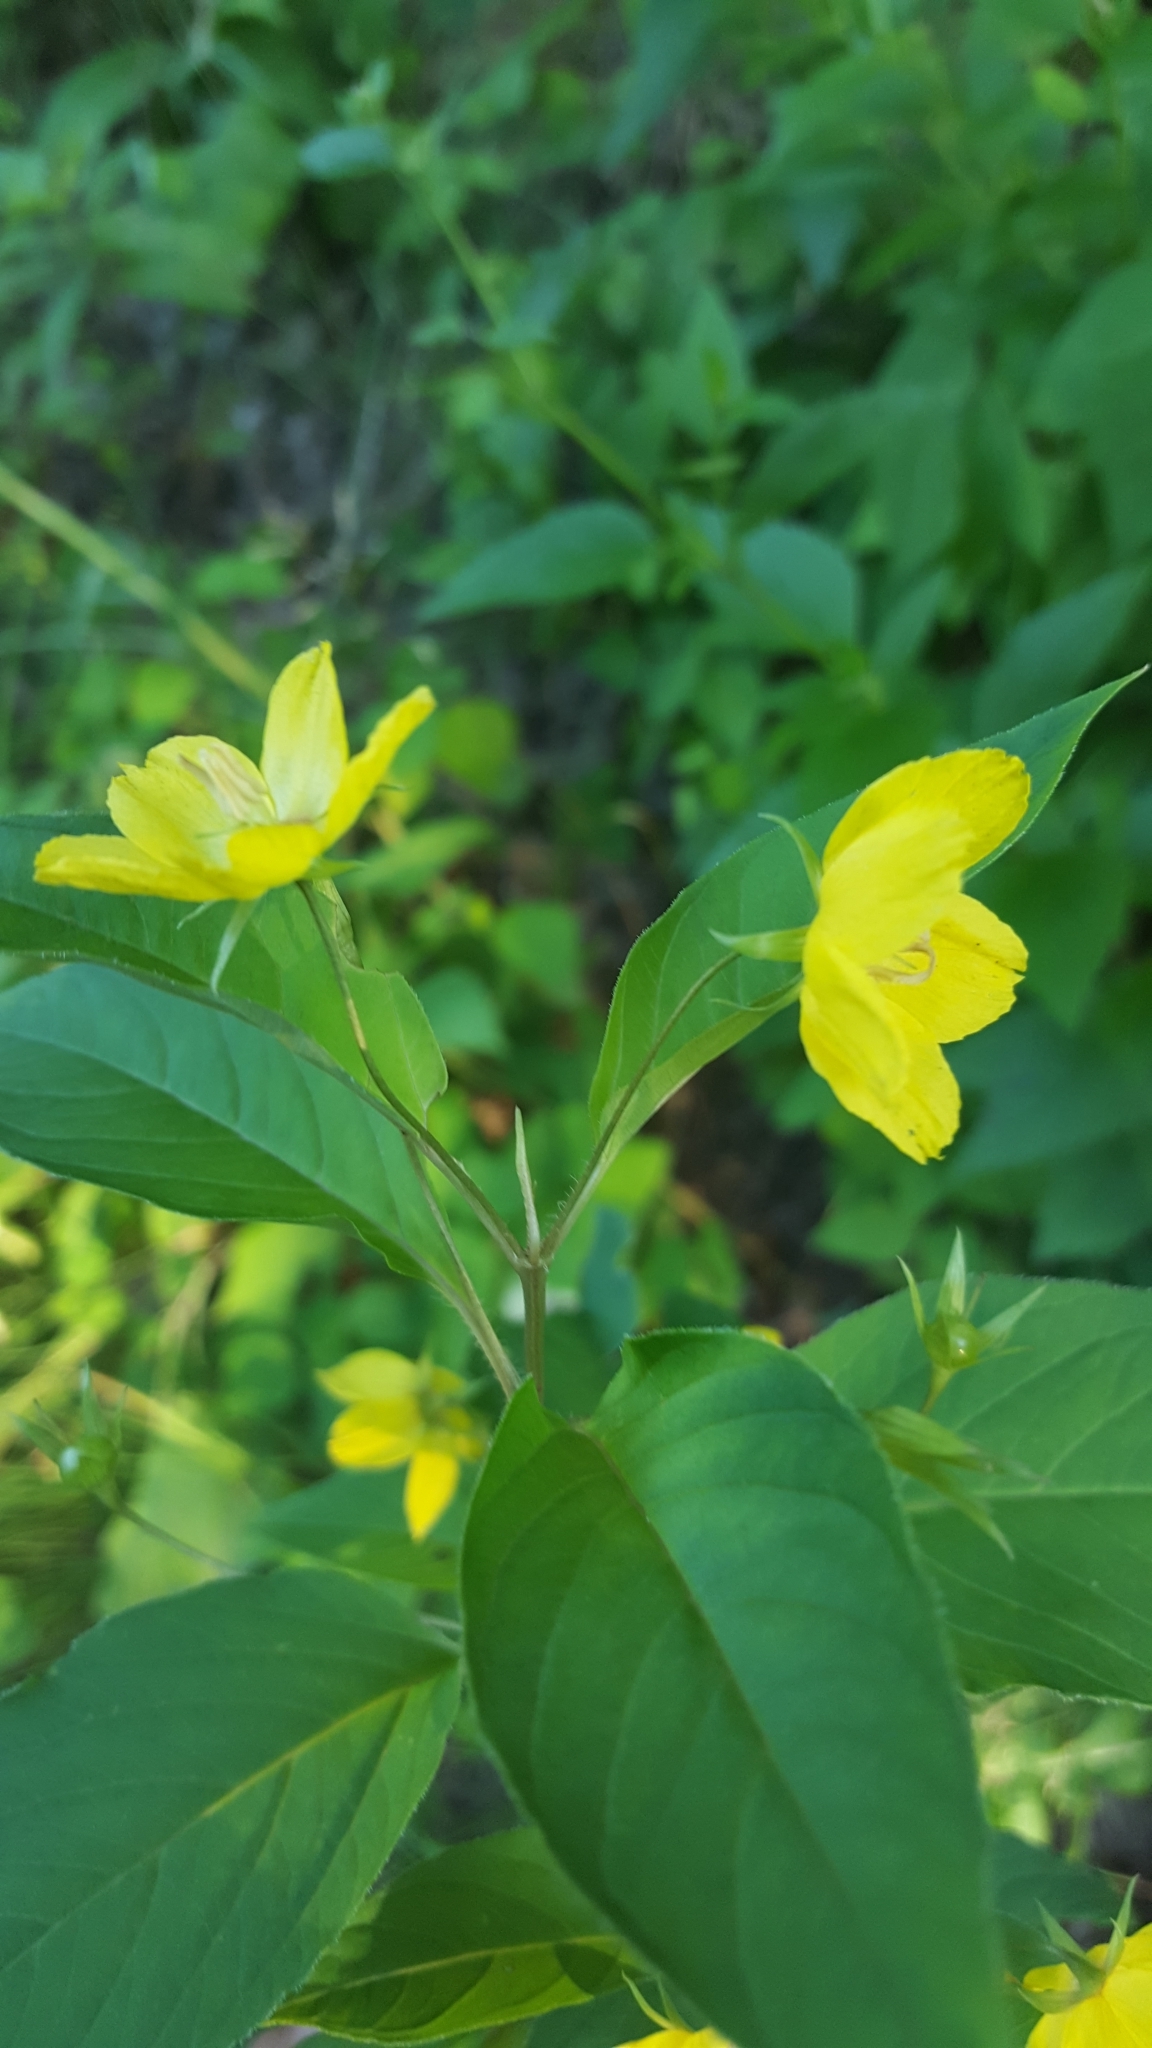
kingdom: Plantae
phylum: Tracheophyta
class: Magnoliopsida
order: Ericales
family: Primulaceae
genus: Lysimachia
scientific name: Lysimachia ciliata
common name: Fringed loosestrife
